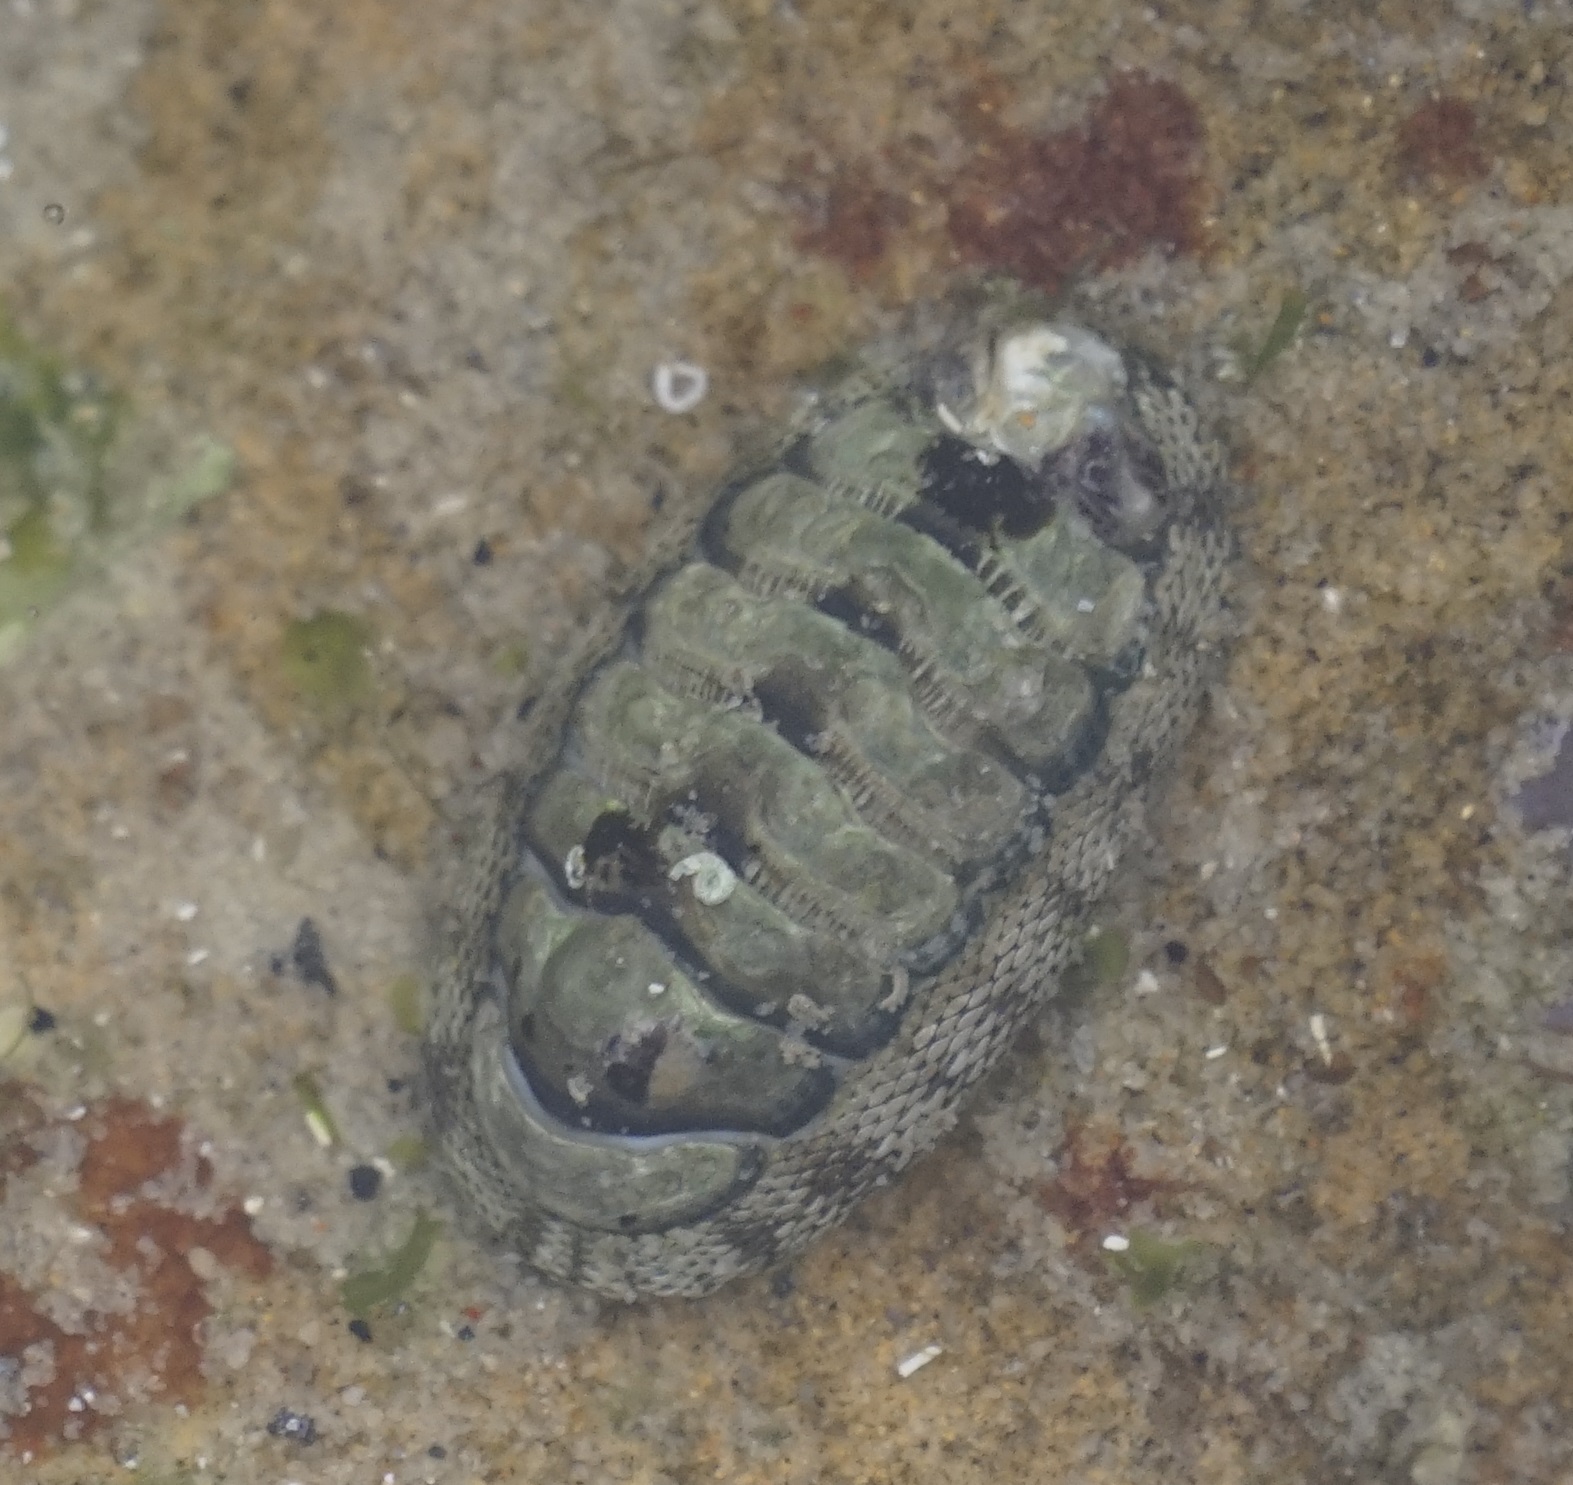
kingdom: Animalia
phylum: Mollusca
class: Polyplacophora
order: Chitonida
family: Chitonidae
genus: Sypharochiton
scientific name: Sypharochiton pelliserpentis
